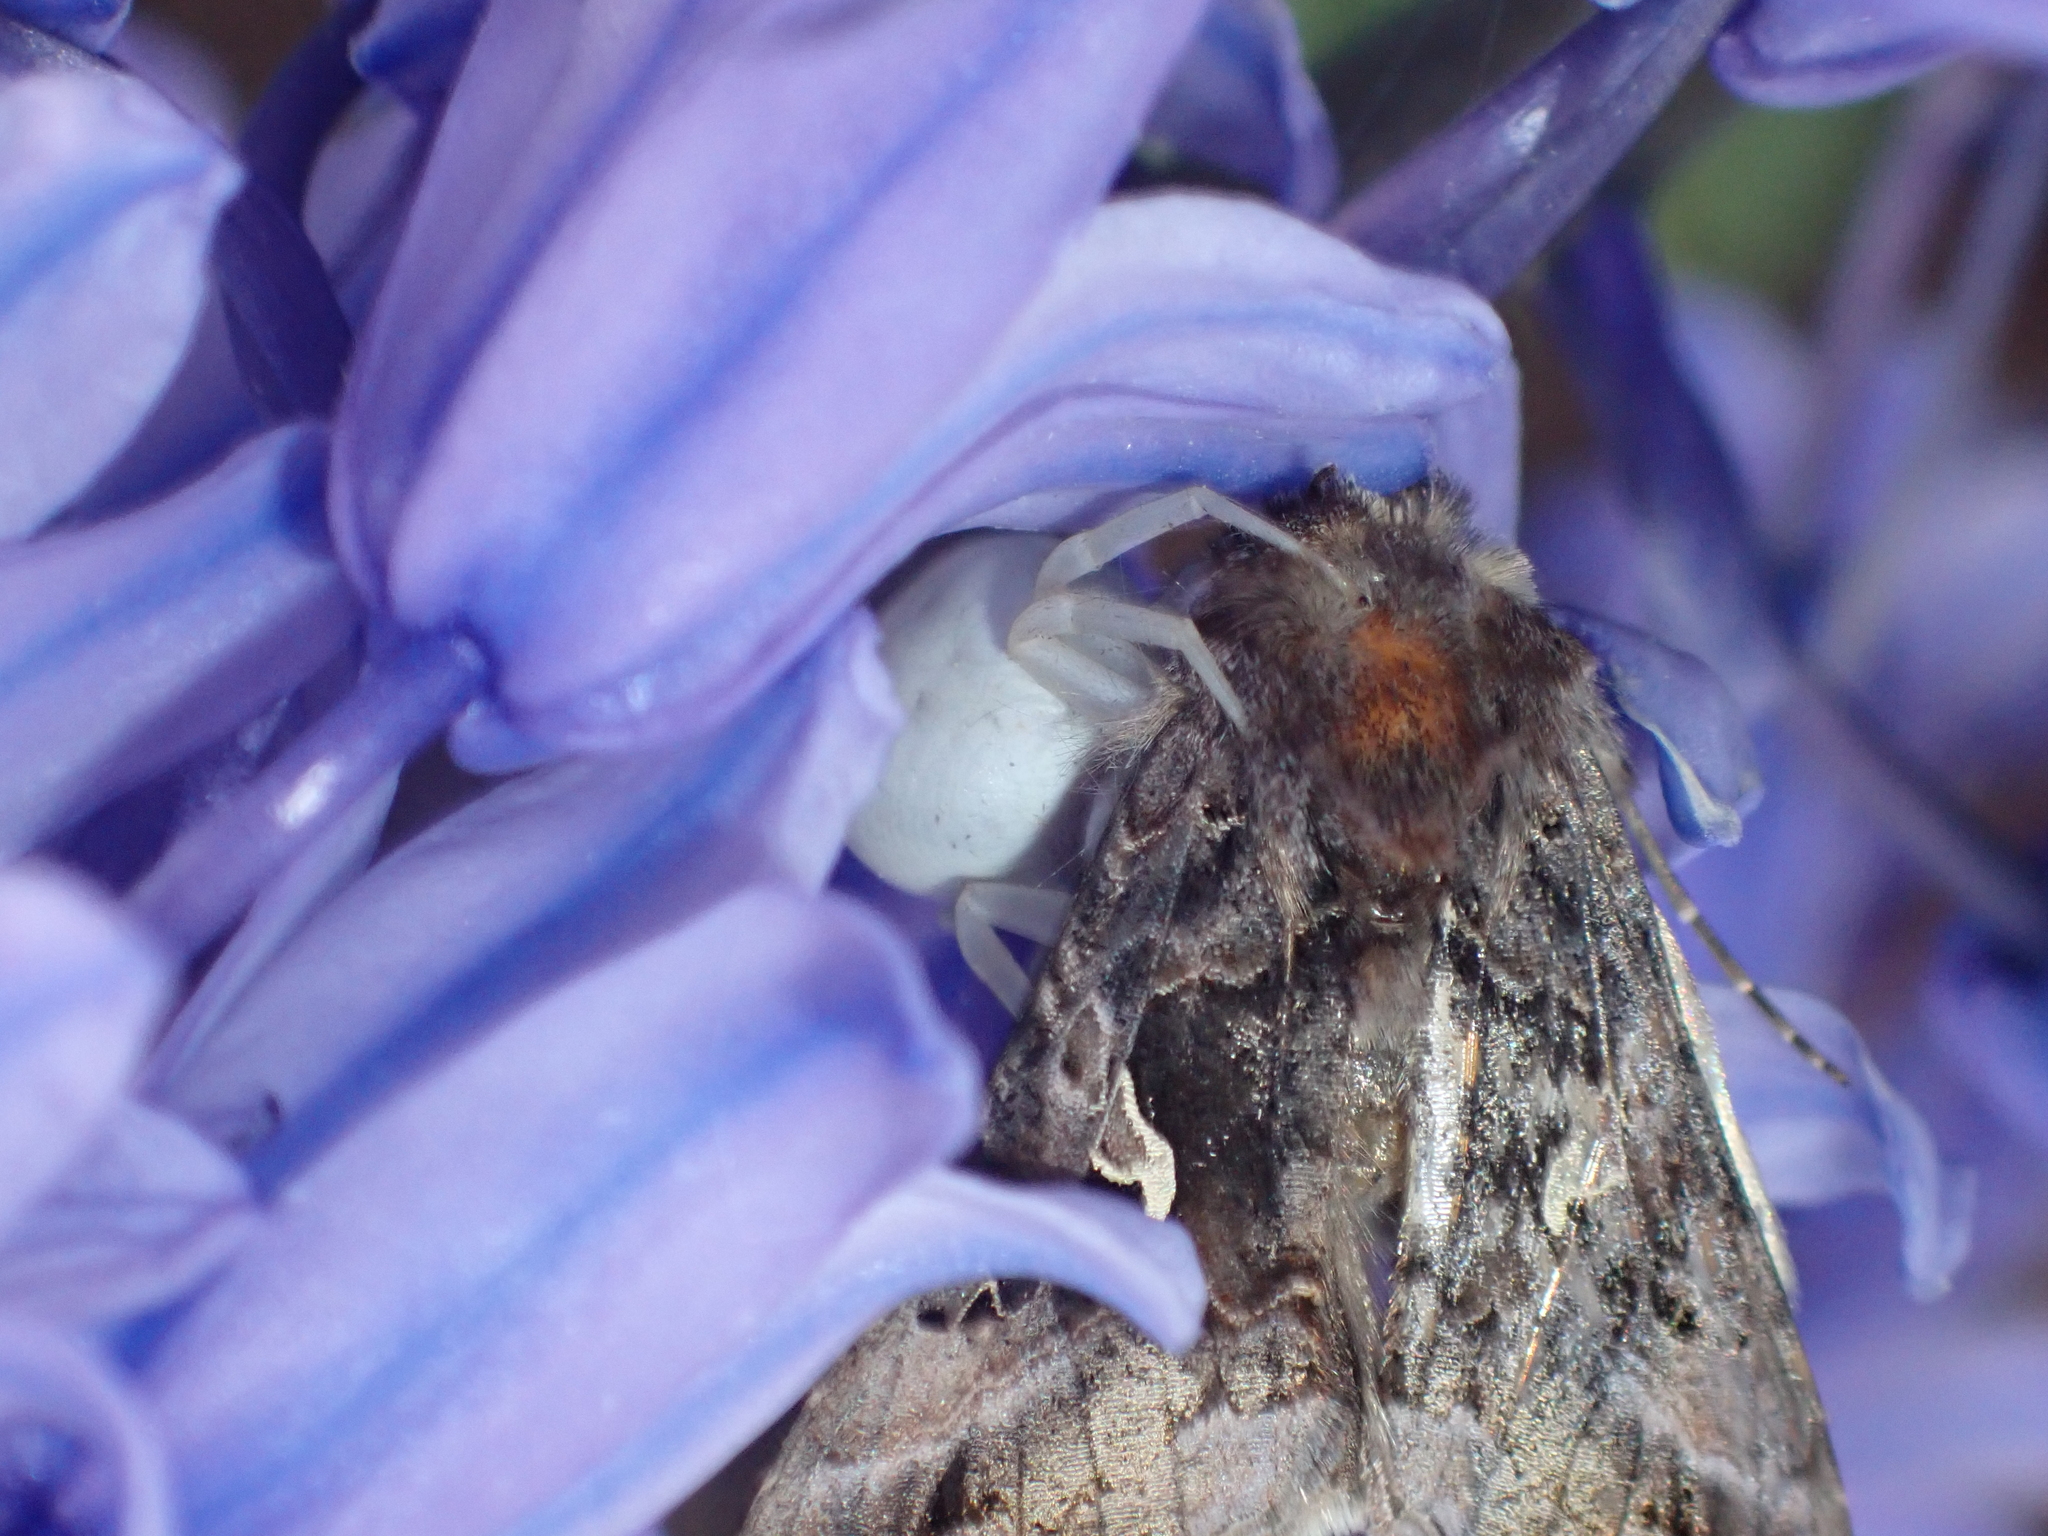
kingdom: Animalia
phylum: Arthropoda
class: Arachnida
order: Araneae
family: Thomisidae
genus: Misumena
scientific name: Misumena vatia
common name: Goldenrod crab spider
